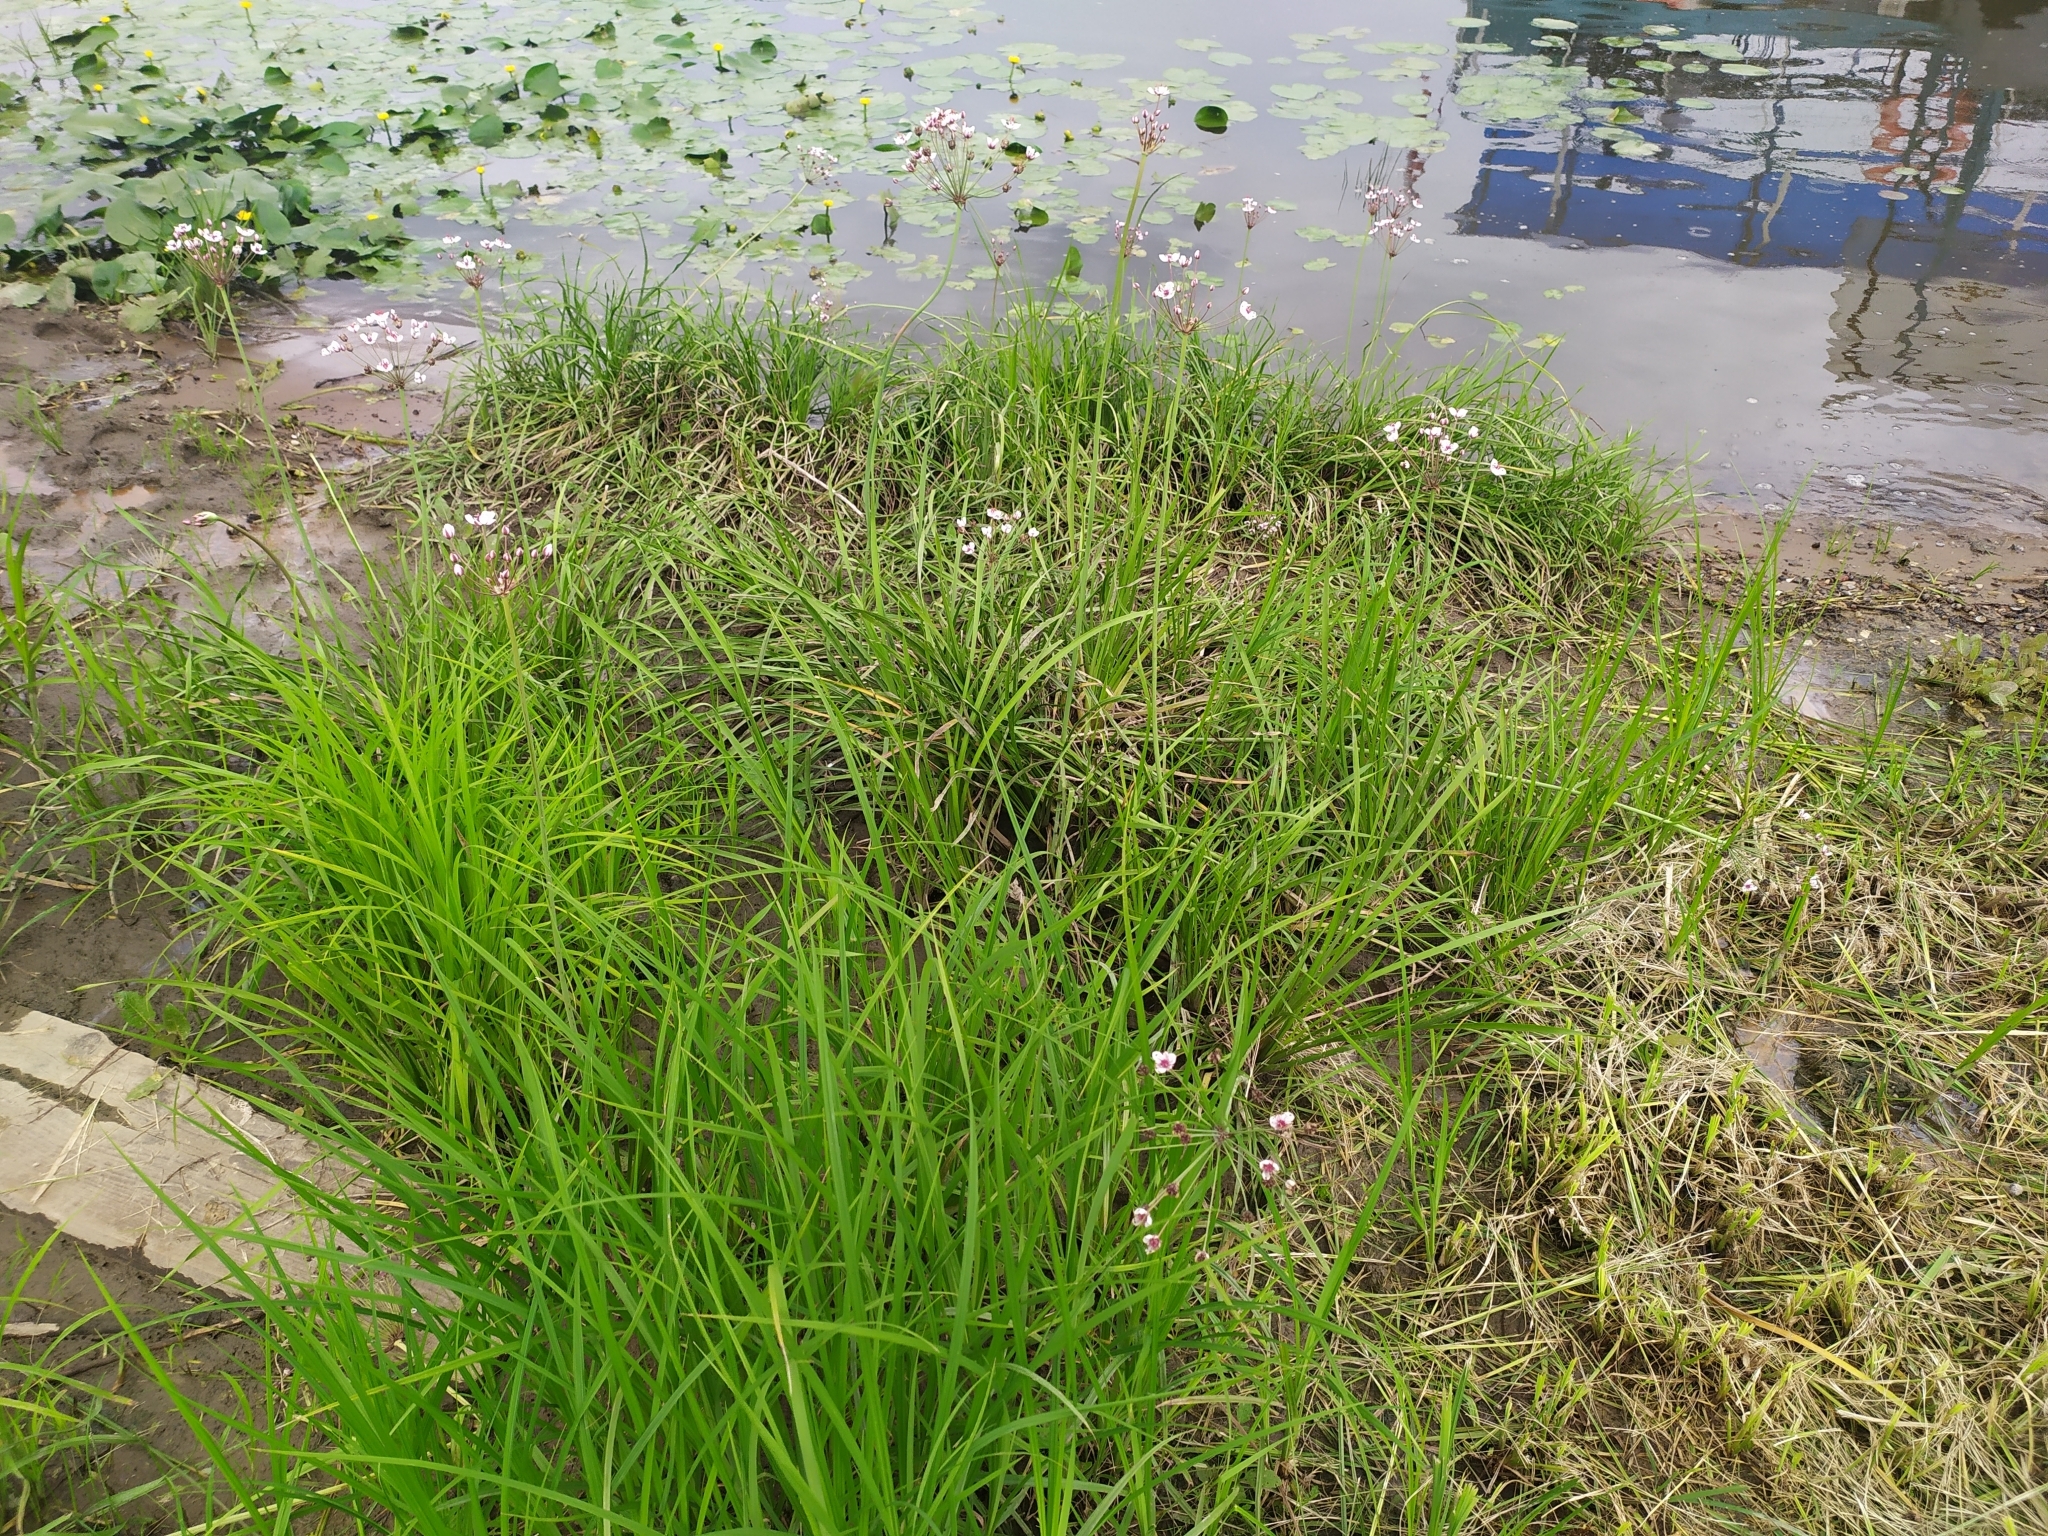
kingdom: Plantae
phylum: Tracheophyta
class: Liliopsida
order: Alismatales
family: Butomaceae
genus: Butomus
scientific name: Butomus umbellatus
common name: Flowering-rush
